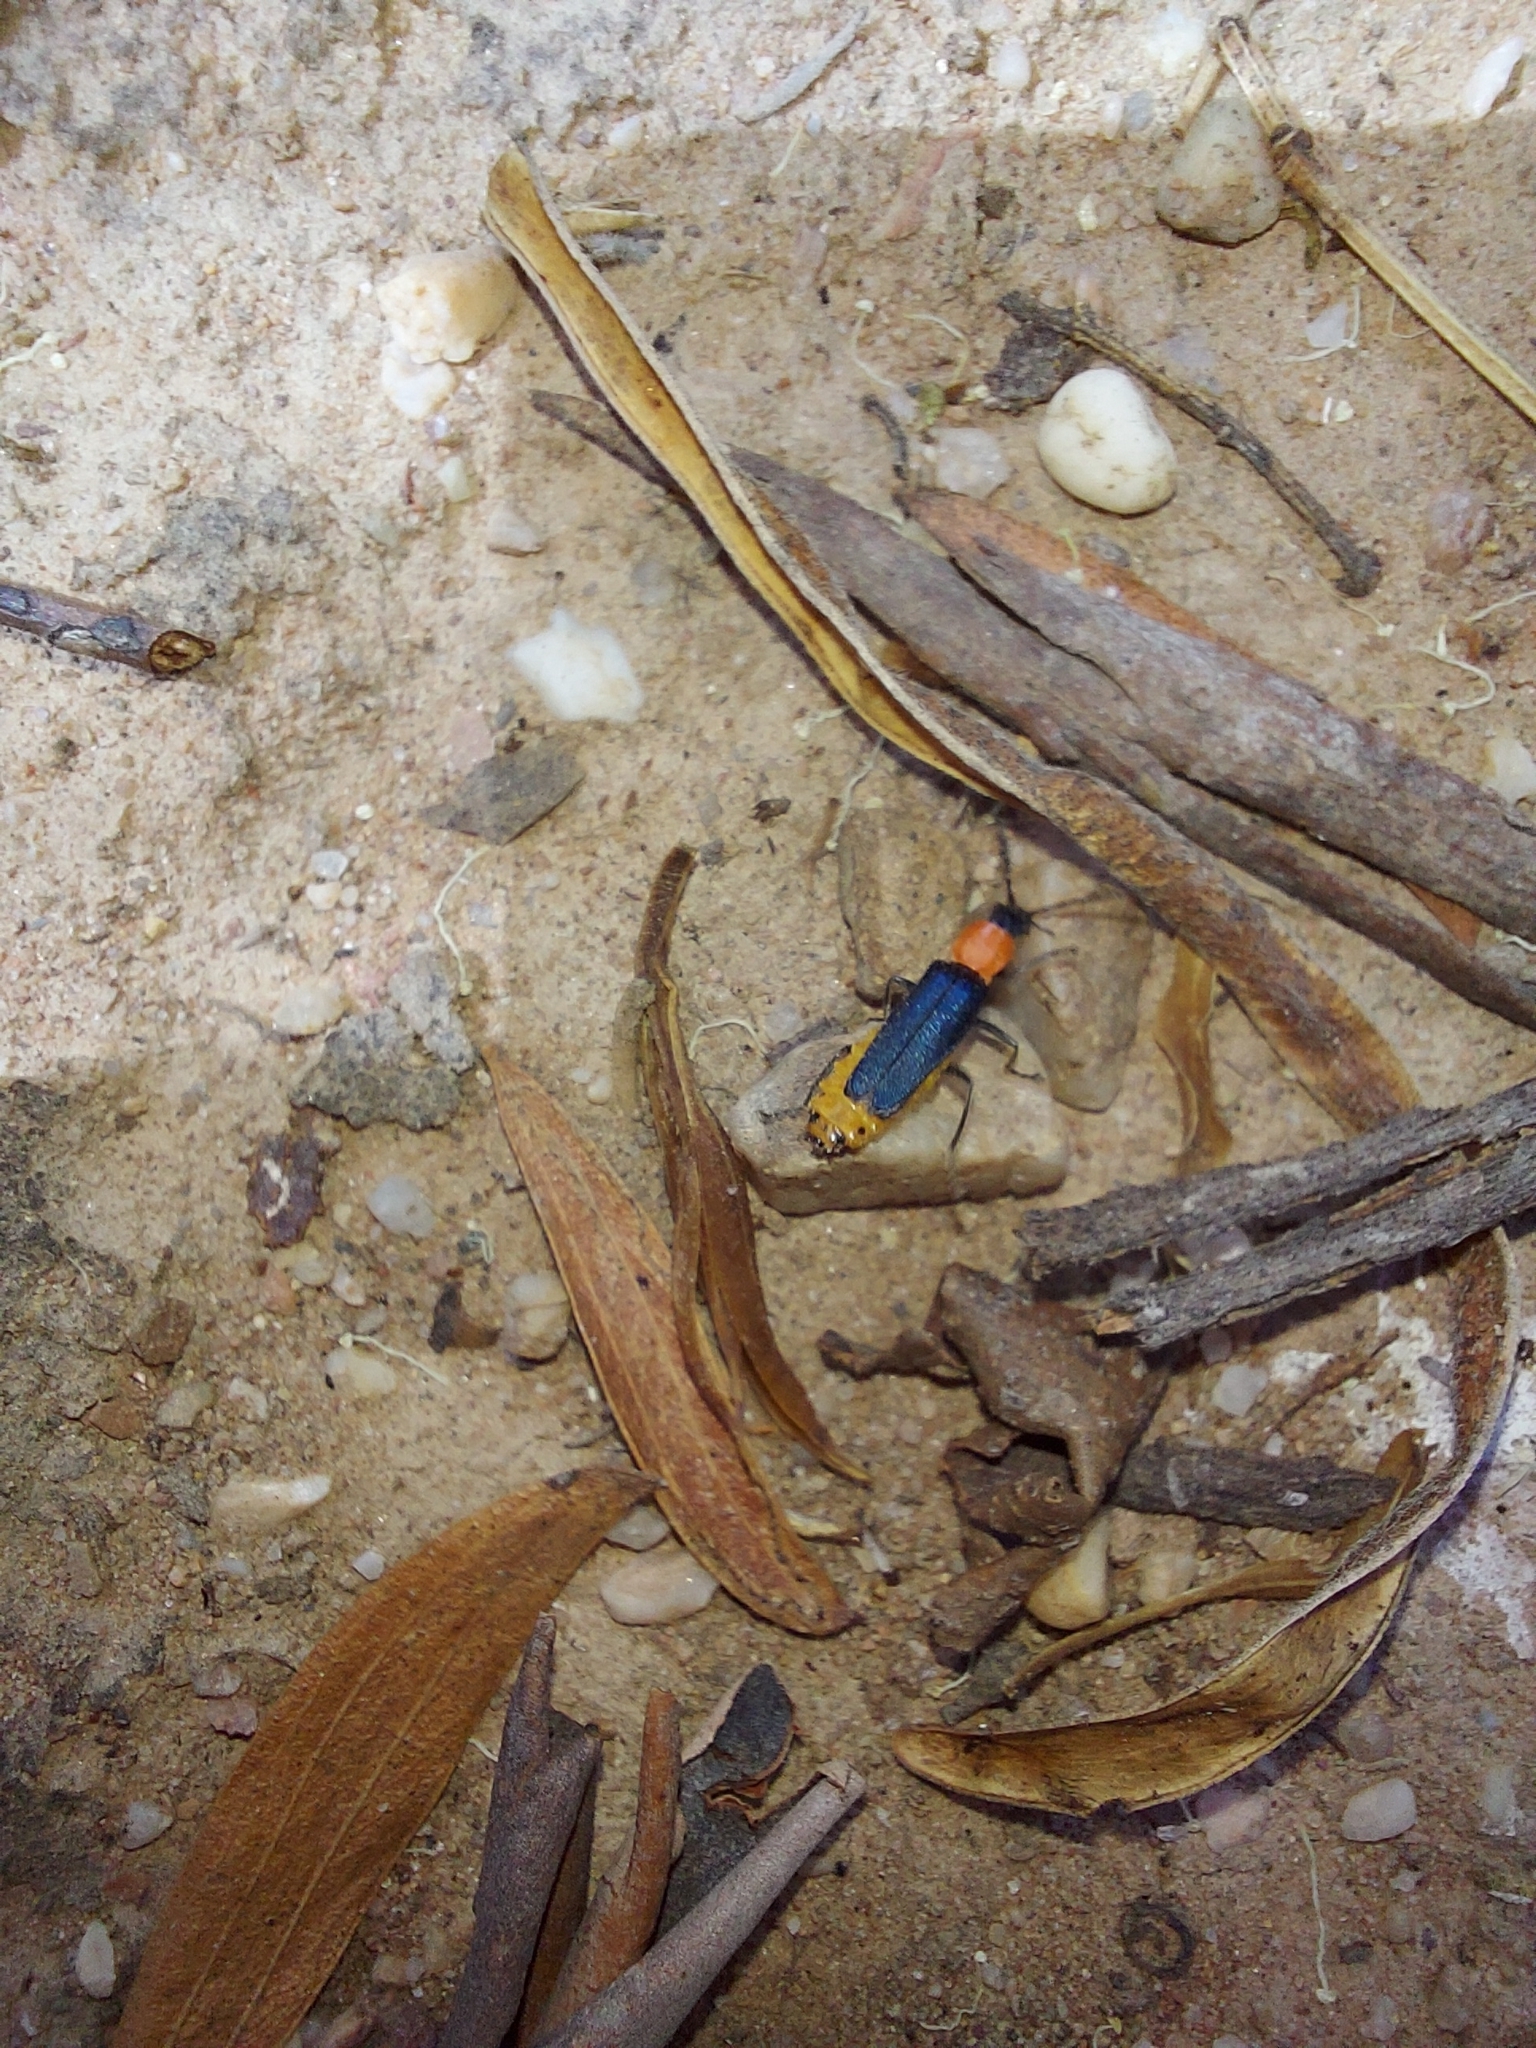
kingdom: Animalia
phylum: Arthropoda
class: Insecta
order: Coleoptera
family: Cantharidae
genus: Chauliognathus
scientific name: Chauliognathus
